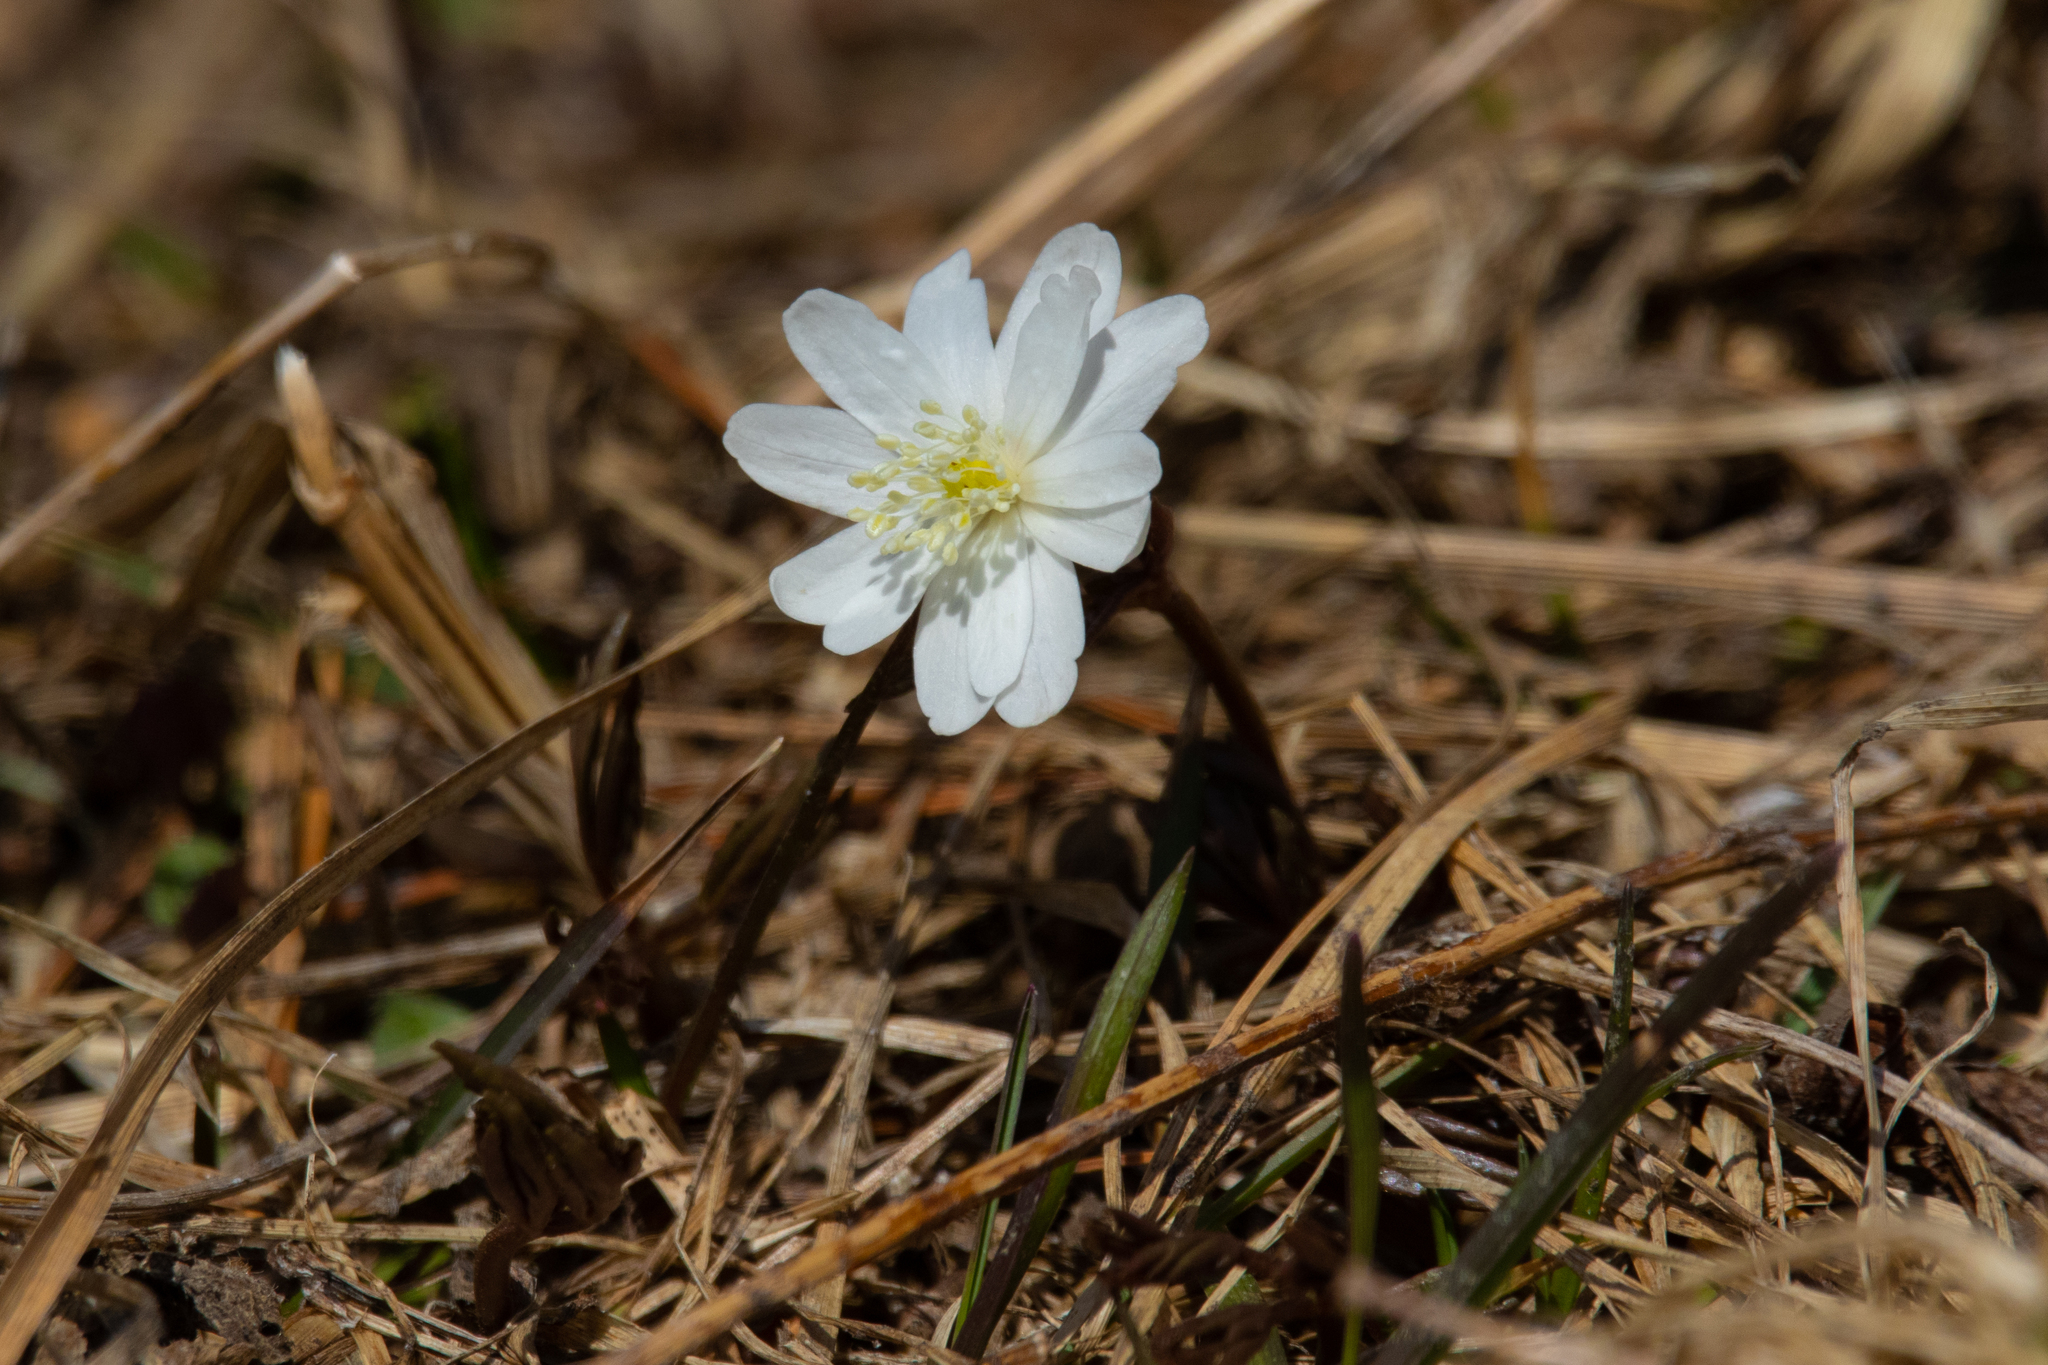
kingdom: Plantae
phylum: Tracheophyta
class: Magnoliopsida
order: Ranunculales
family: Ranunculaceae
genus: Anemone
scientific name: Anemone altaica
